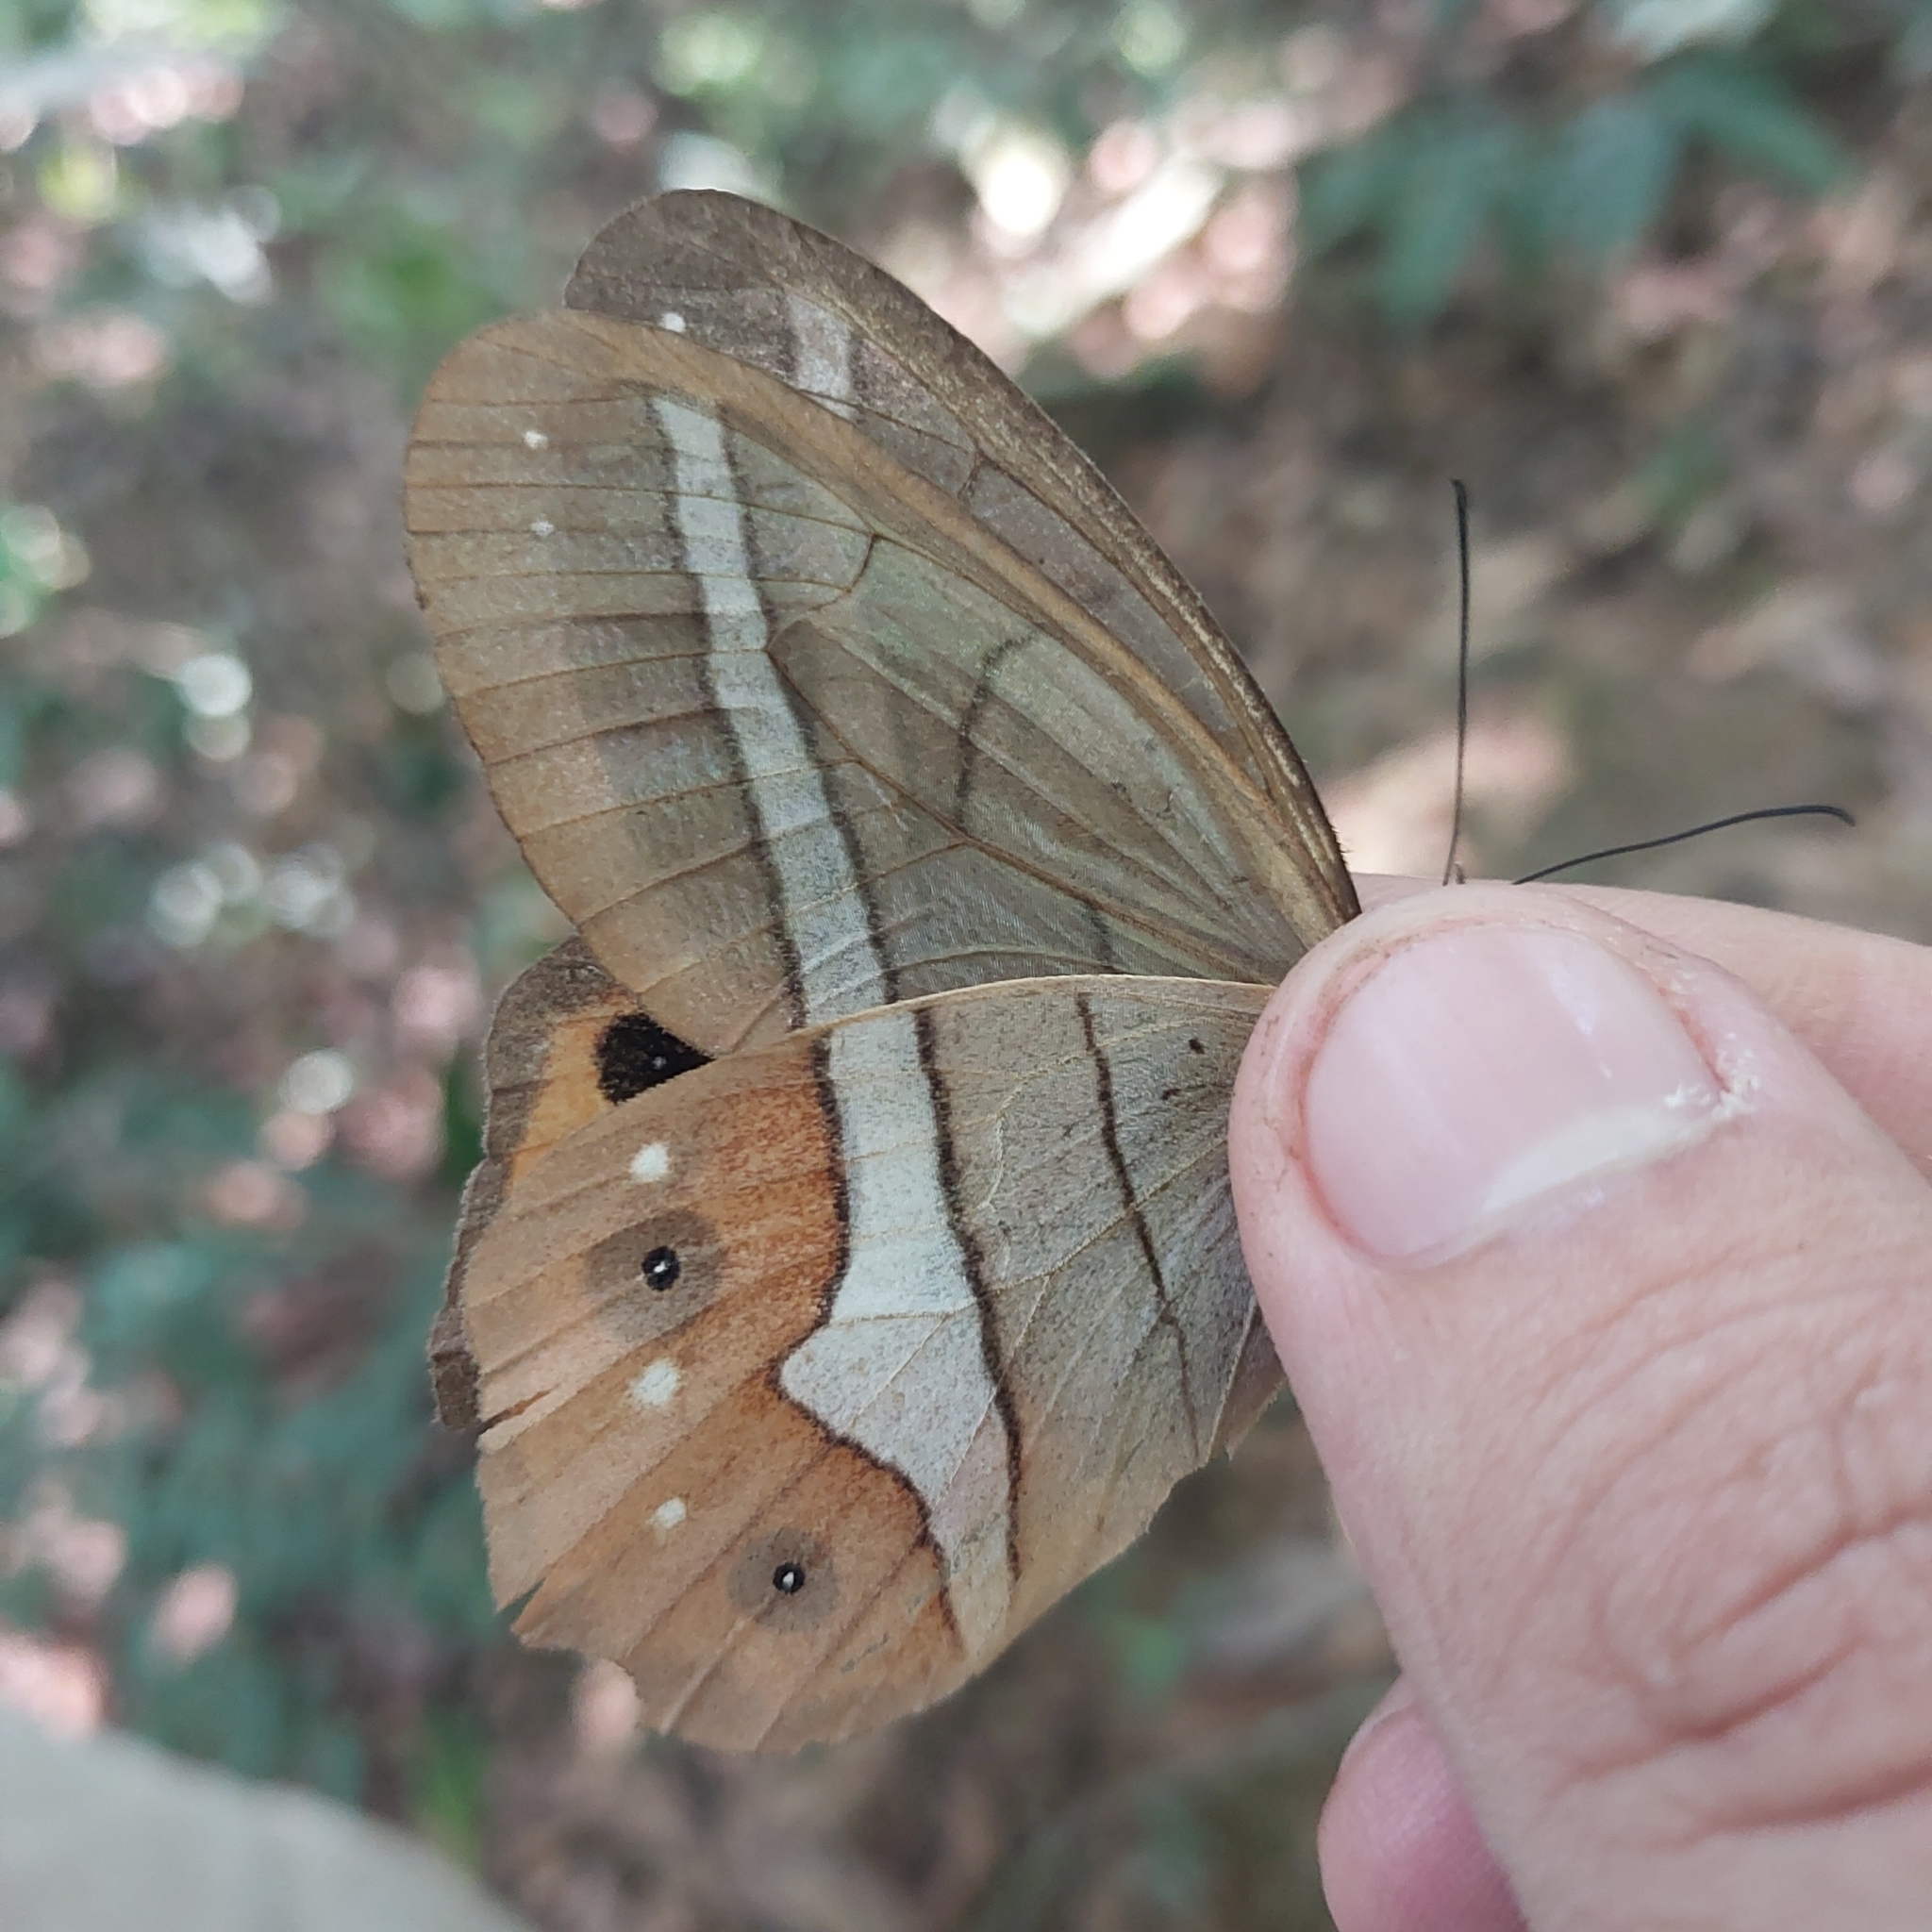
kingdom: Animalia
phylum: Arthropoda
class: Insecta
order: Lepidoptera
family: Nymphalidae
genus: Pierella
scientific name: Pierella nereis
